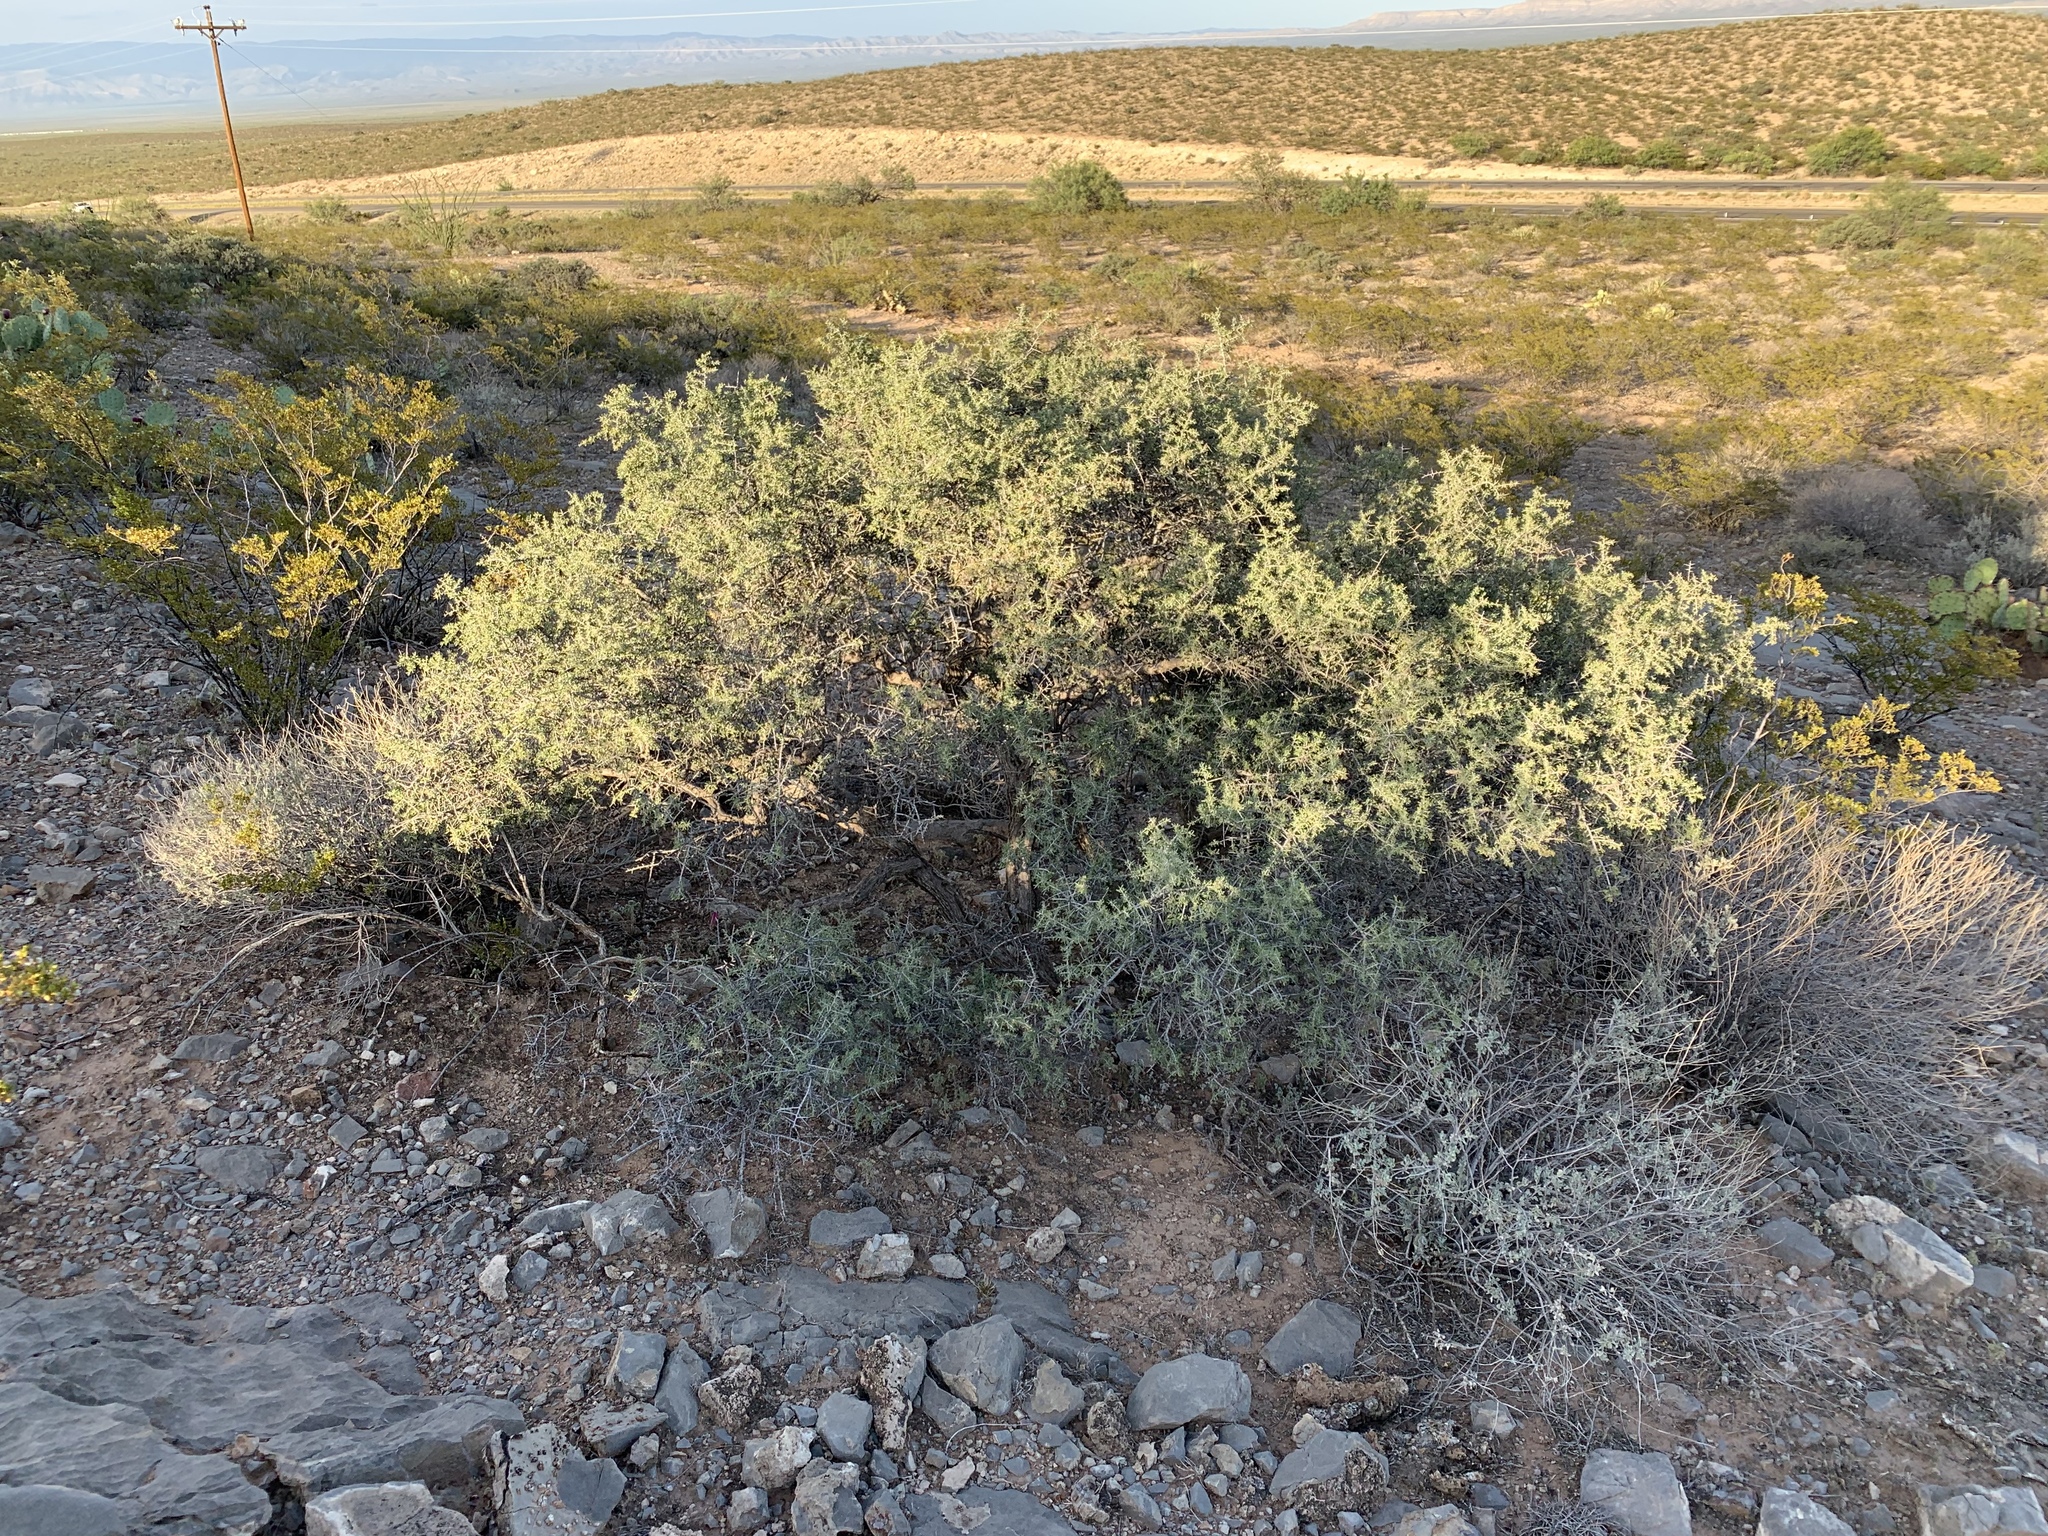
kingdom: Plantae
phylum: Tracheophyta
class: Magnoliopsida
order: Rosales
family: Rhamnaceae
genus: Condalia
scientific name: Condalia warnockii
